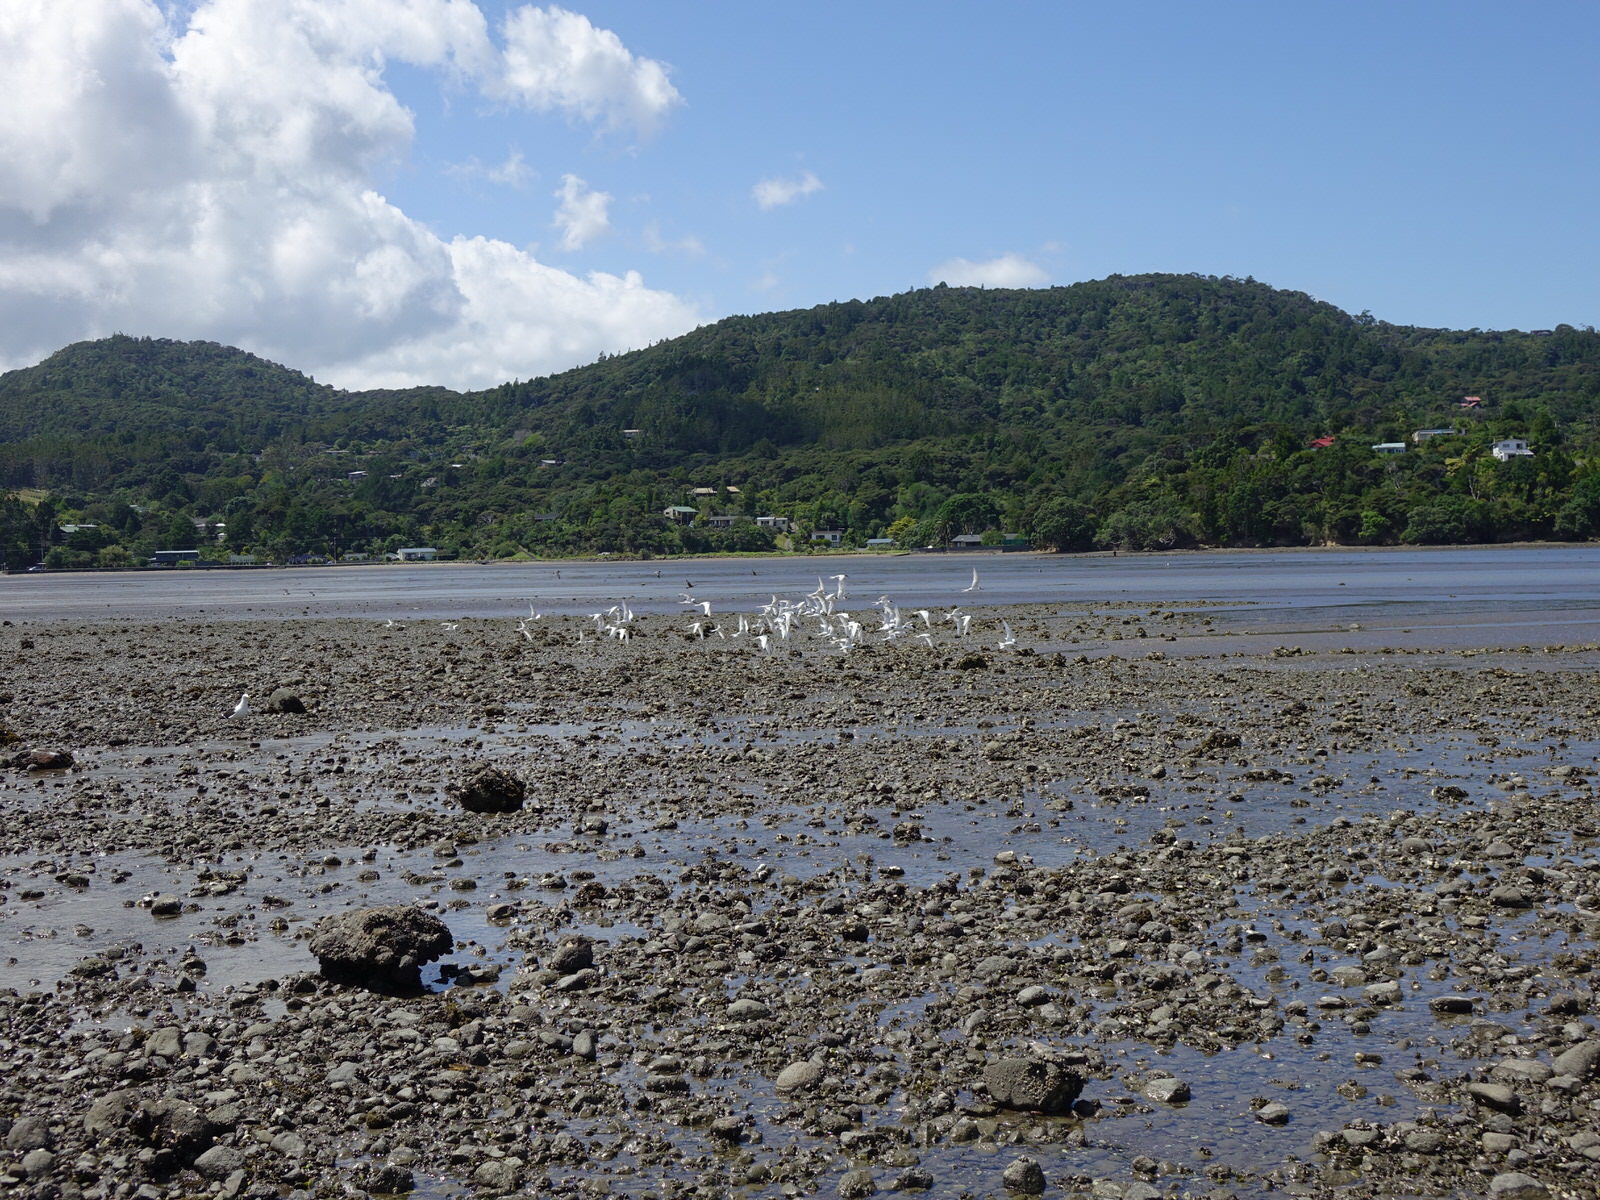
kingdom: Animalia
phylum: Chordata
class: Aves
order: Charadriiformes
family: Laridae
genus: Sterna
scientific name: Sterna striata
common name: White-fronted tern
